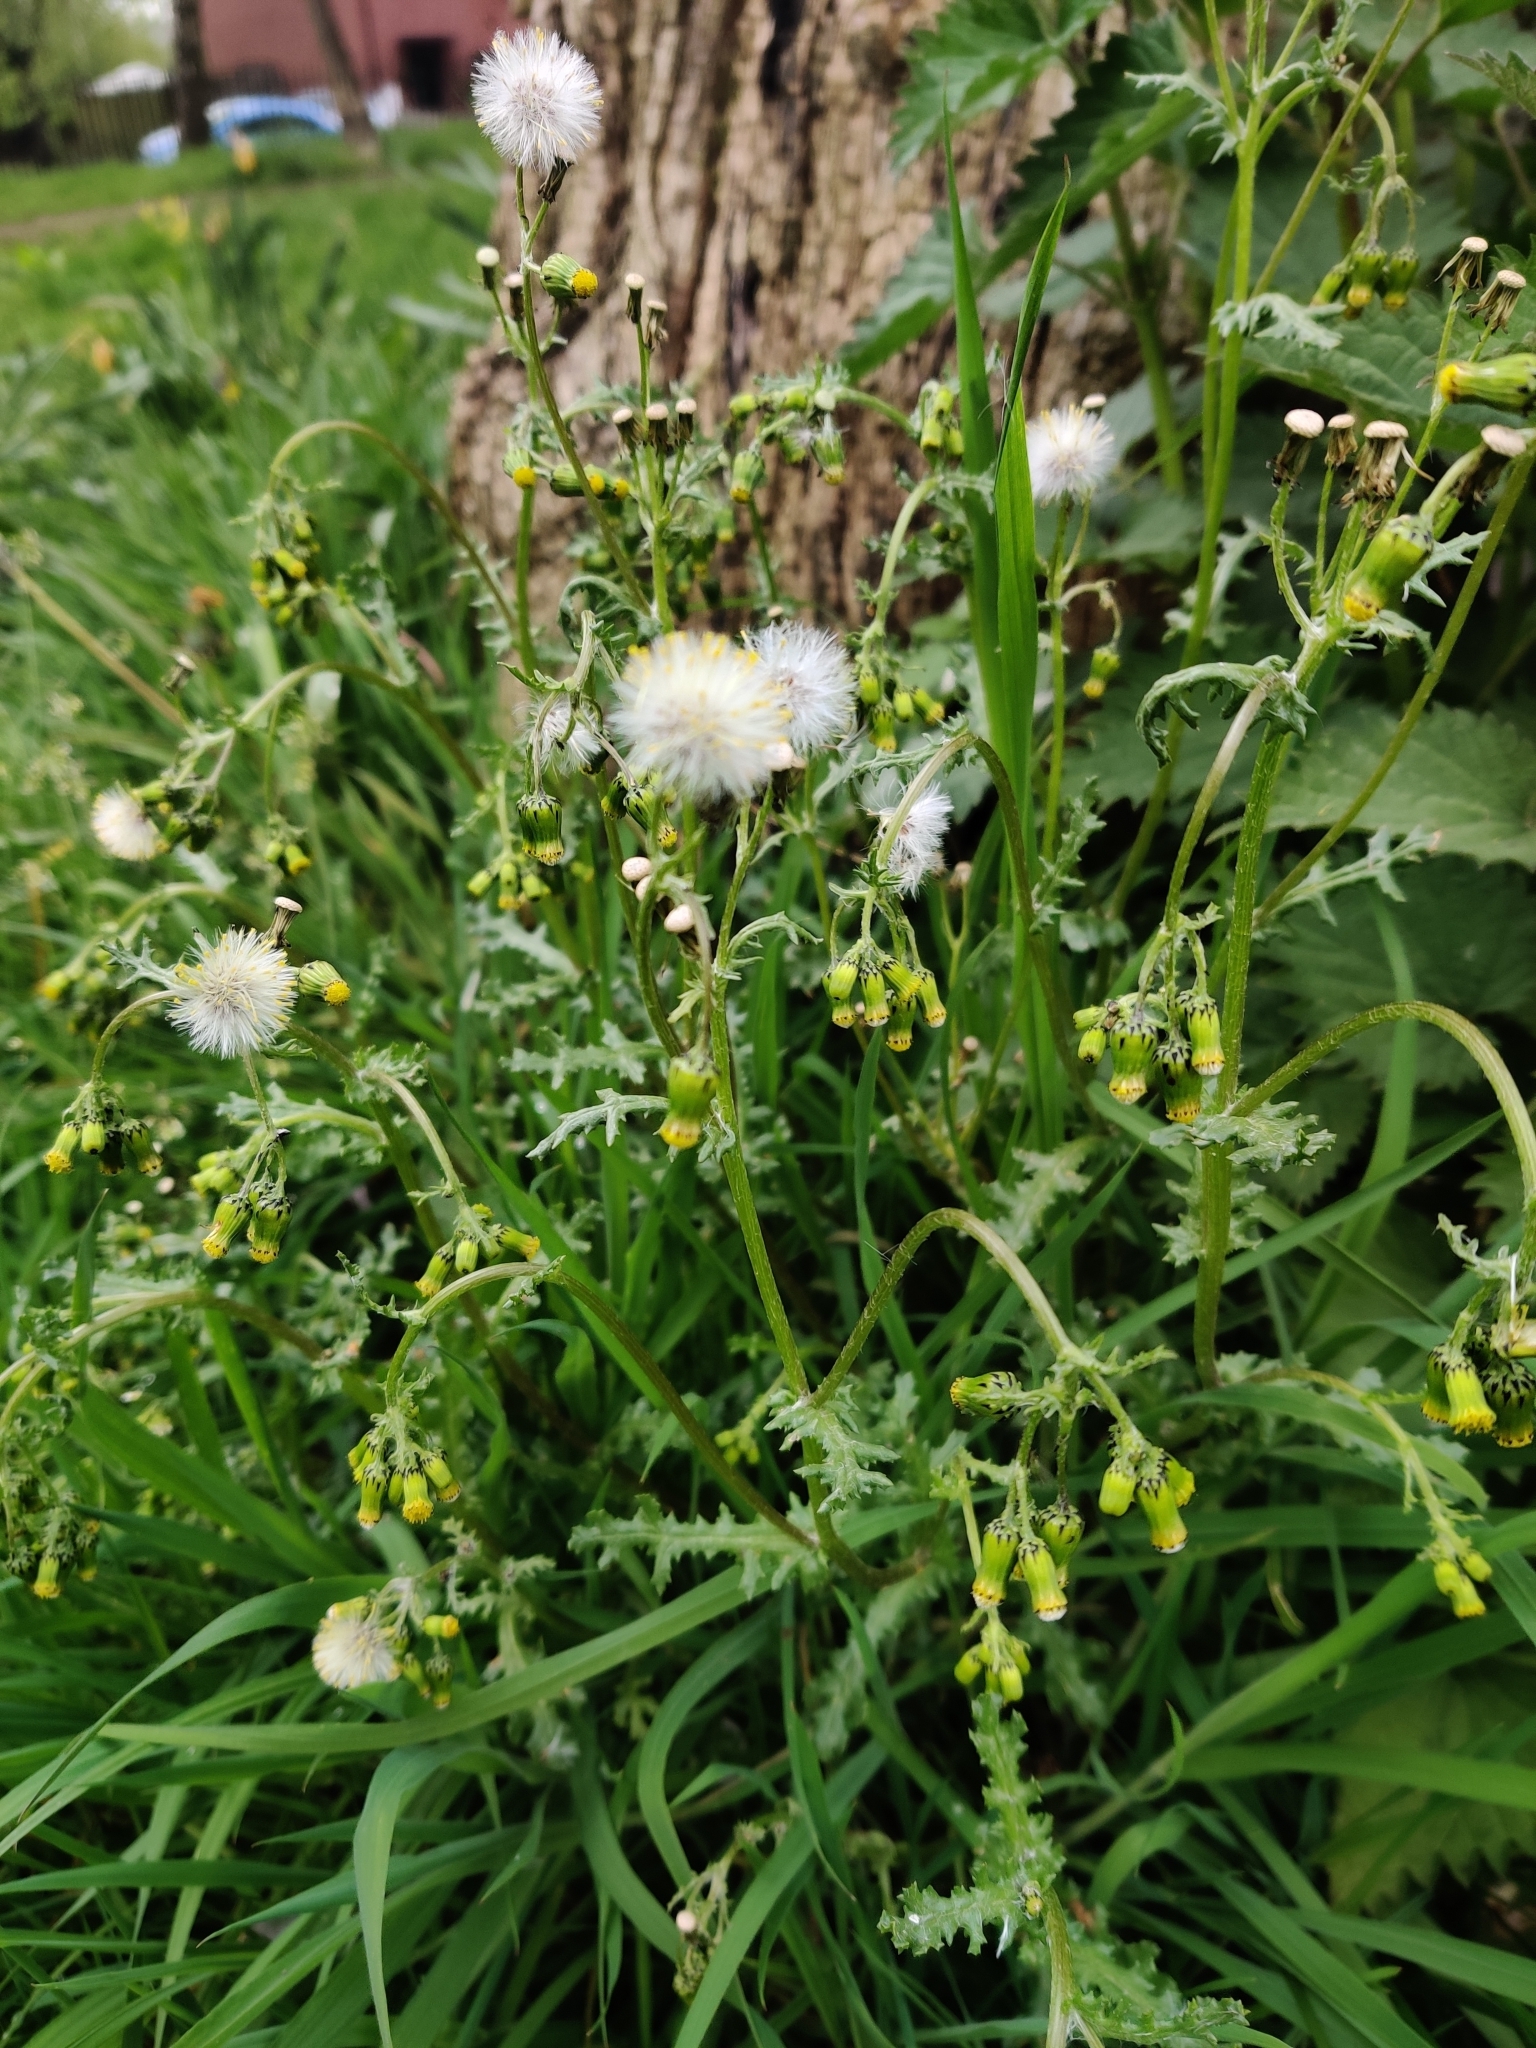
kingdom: Plantae
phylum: Tracheophyta
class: Magnoliopsida
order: Asterales
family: Asteraceae
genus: Senecio
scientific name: Senecio vulgaris
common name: Old-man-in-the-spring
